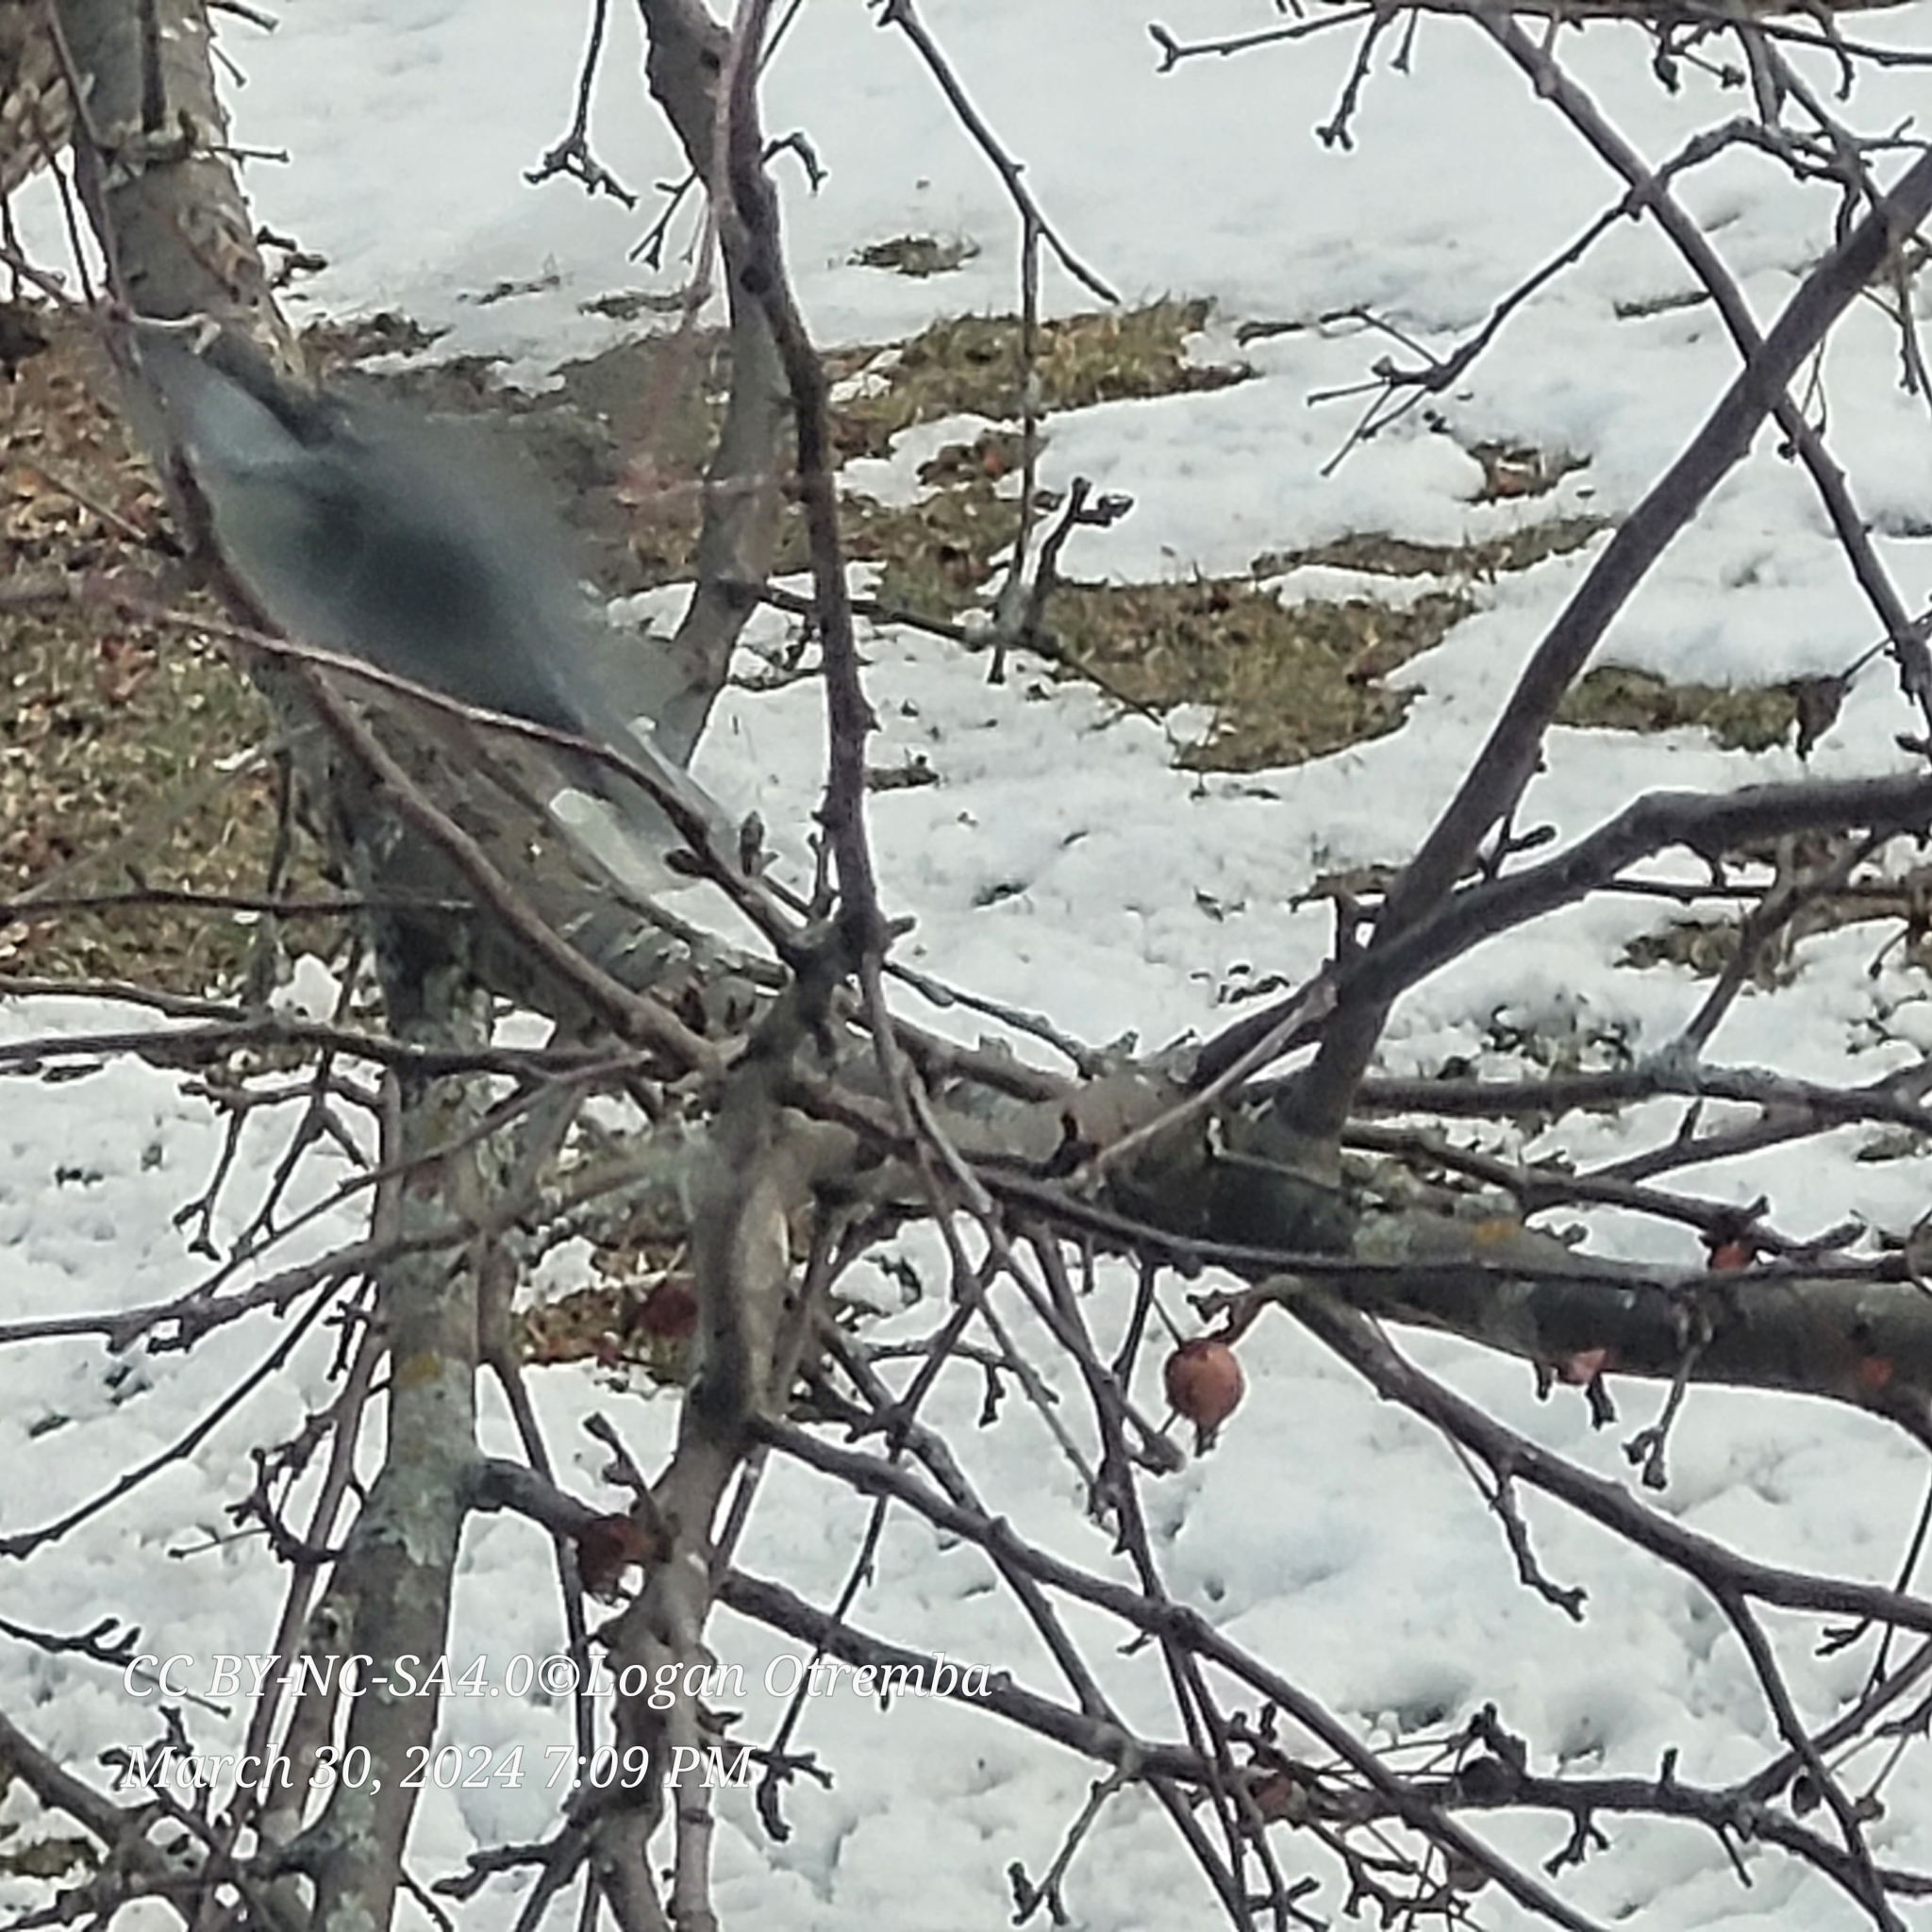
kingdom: Animalia
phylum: Chordata
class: Aves
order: Passeriformes
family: Sittidae
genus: Sitta
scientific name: Sitta carolinensis
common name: White-breasted nuthatch
